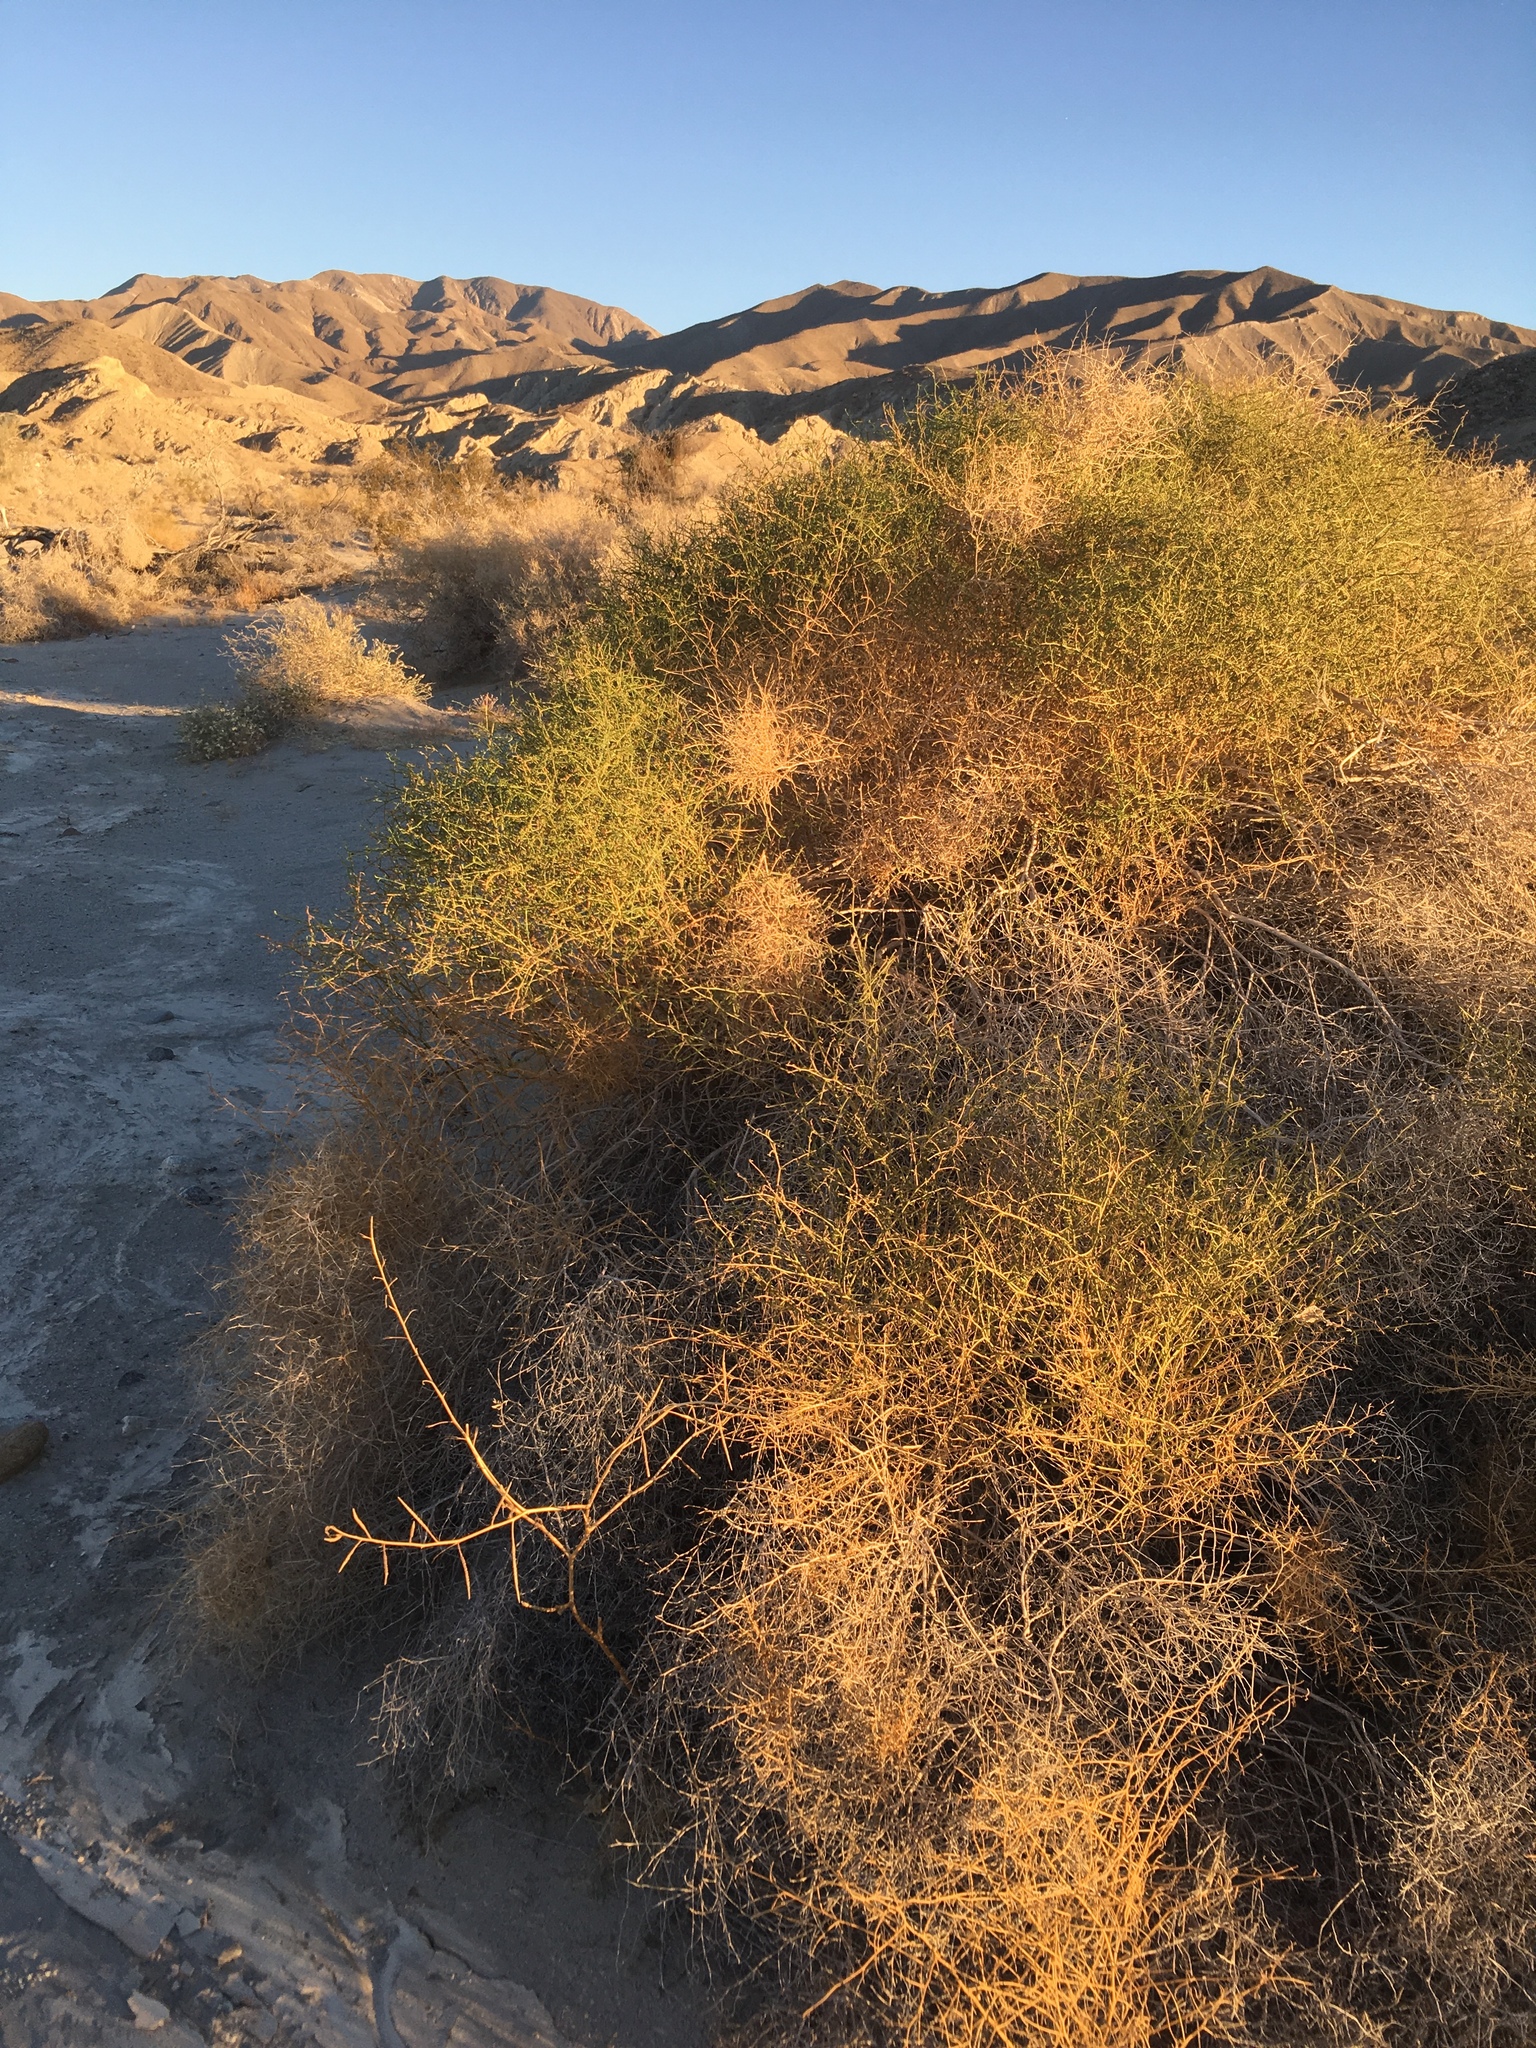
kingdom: Plantae
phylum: Tracheophyta
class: Magnoliopsida
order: Asterales
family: Asteraceae
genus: Ambrosia
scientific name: Ambrosia salsola
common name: Burrobrush
